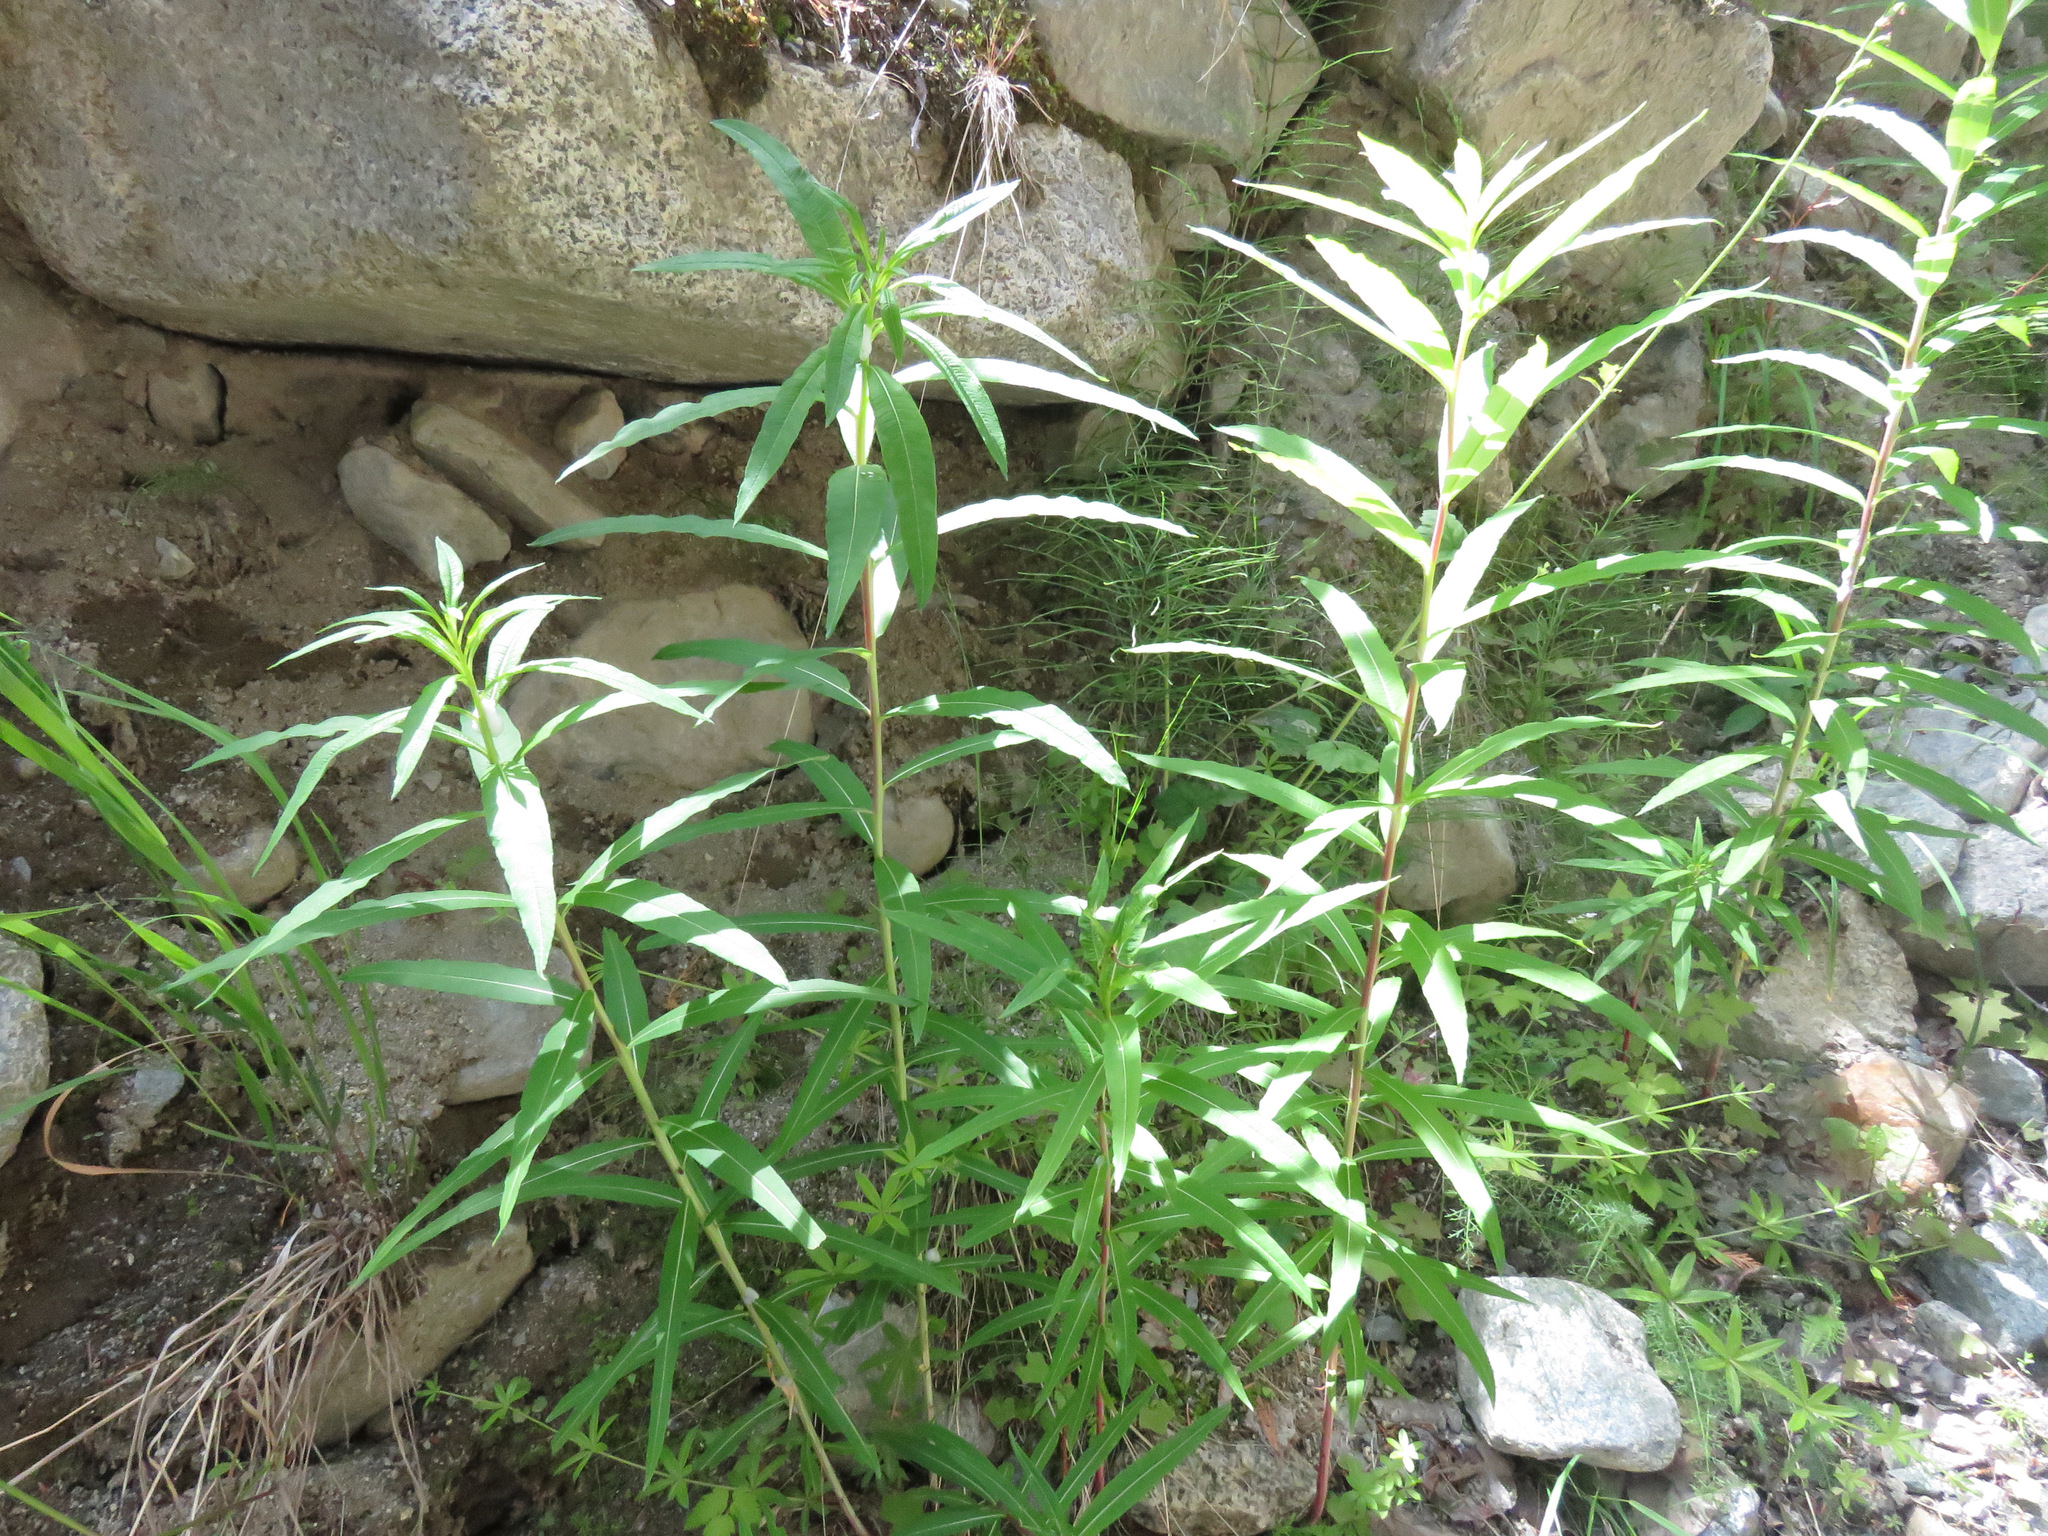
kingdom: Plantae
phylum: Tracheophyta
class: Magnoliopsida
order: Myrtales
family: Onagraceae
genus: Chamaenerion
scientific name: Chamaenerion angustifolium
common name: Fireweed
